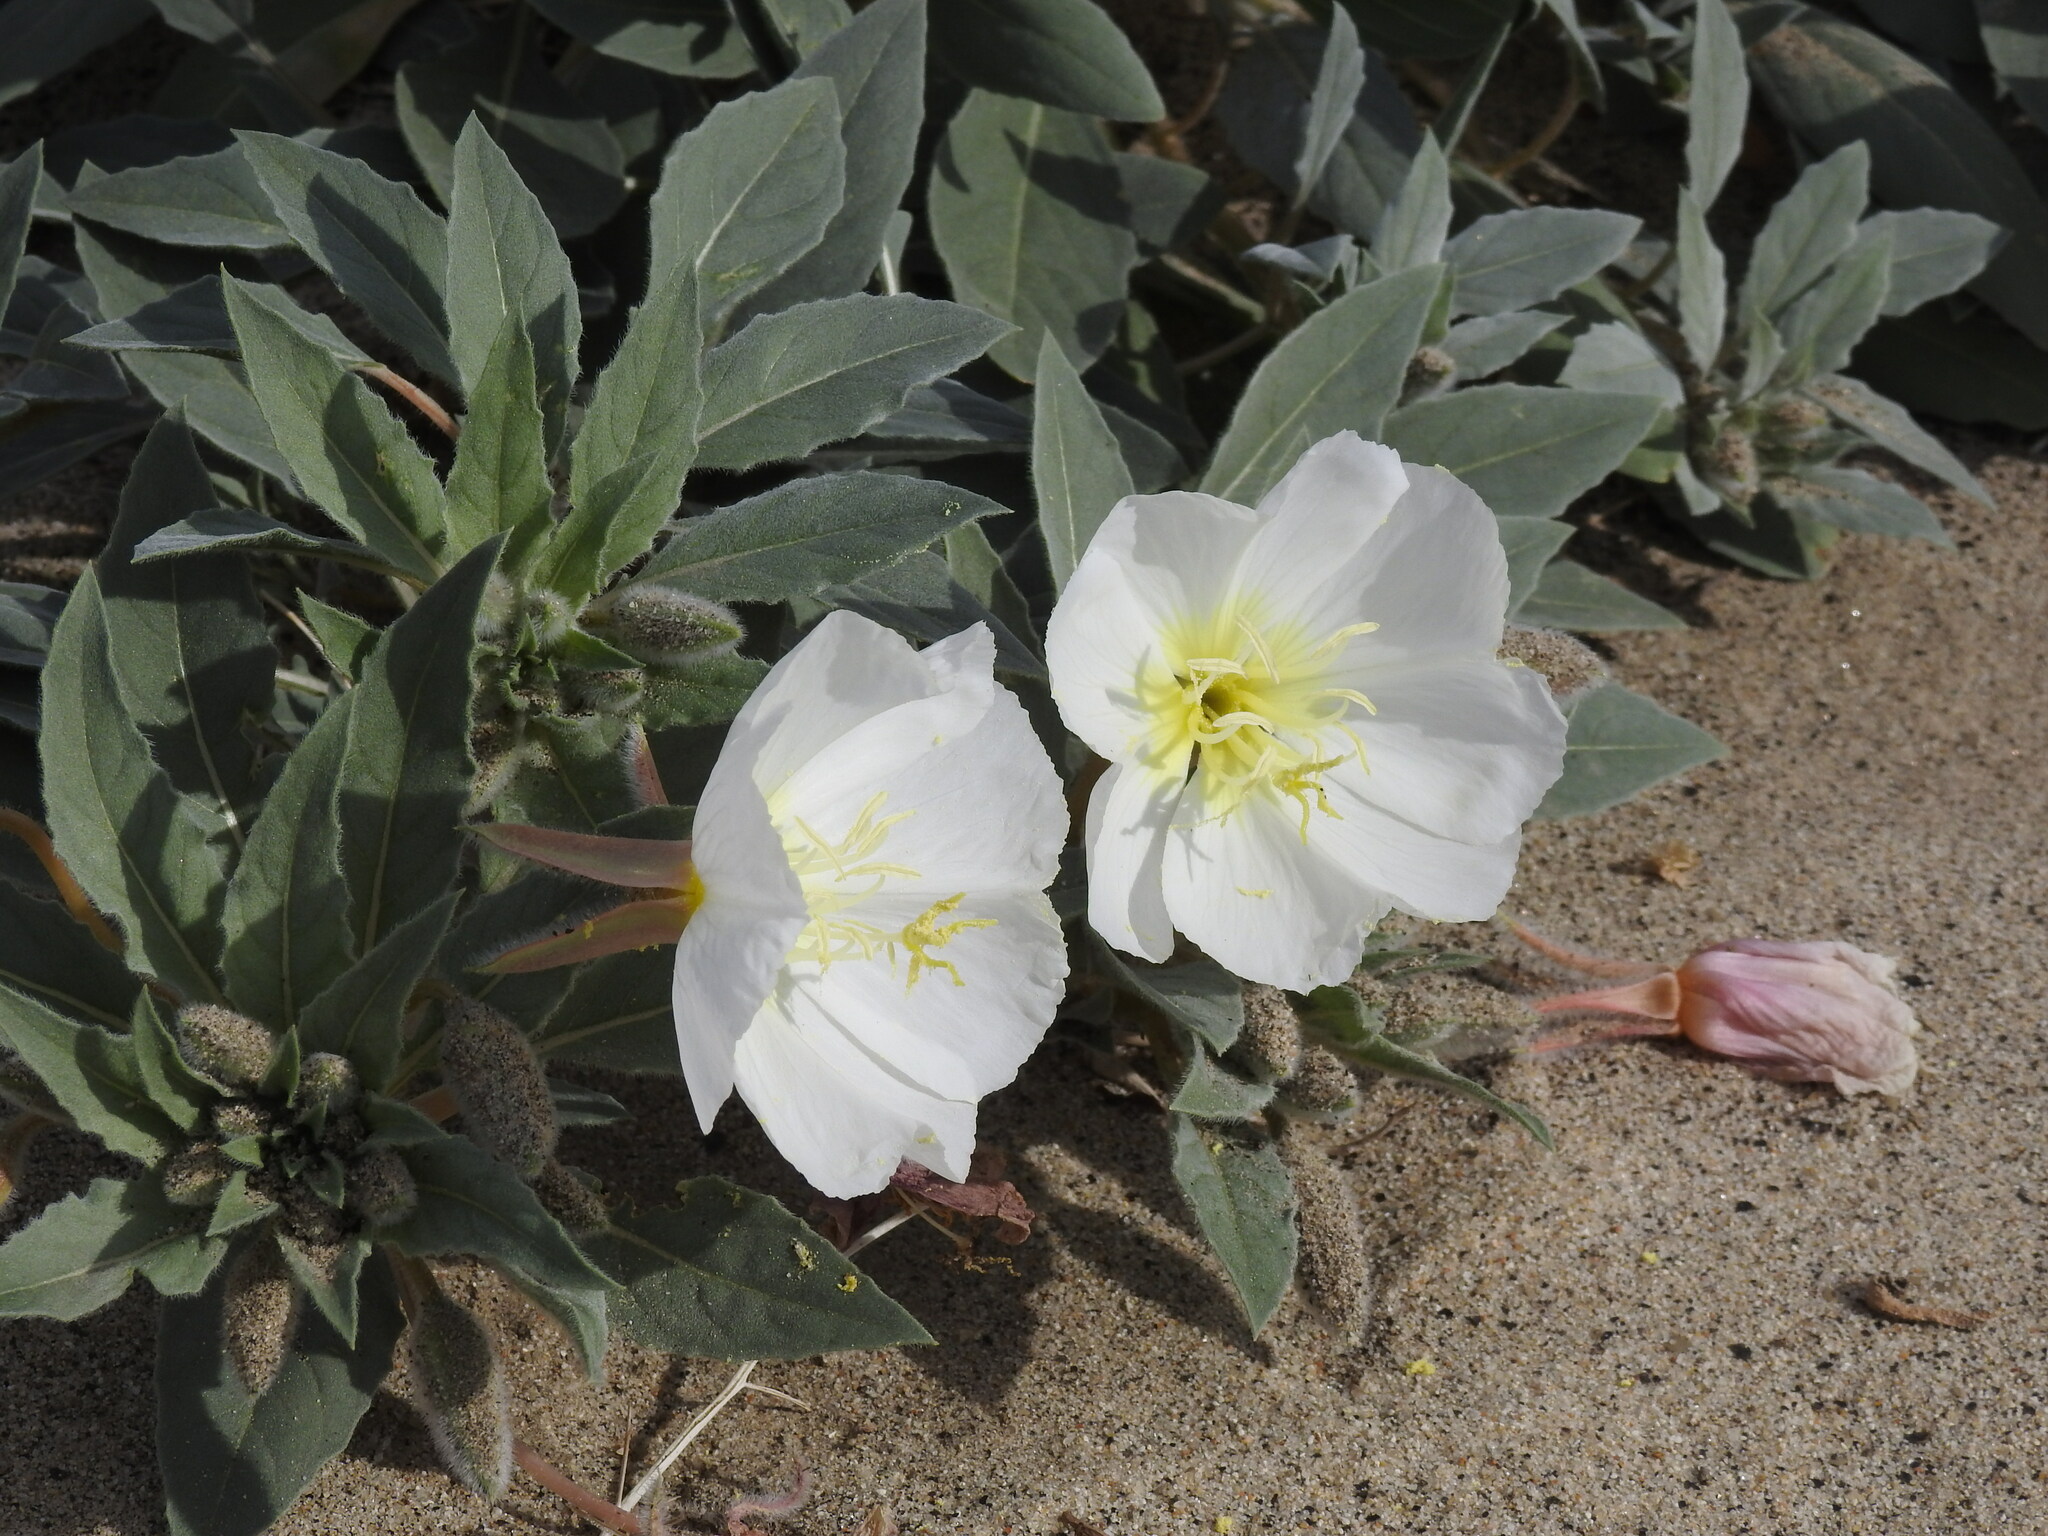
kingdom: Plantae
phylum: Tracheophyta
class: Magnoliopsida
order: Myrtales
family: Onagraceae
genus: Oenothera
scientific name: Oenothera deltoides
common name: Basket evening-primrose
